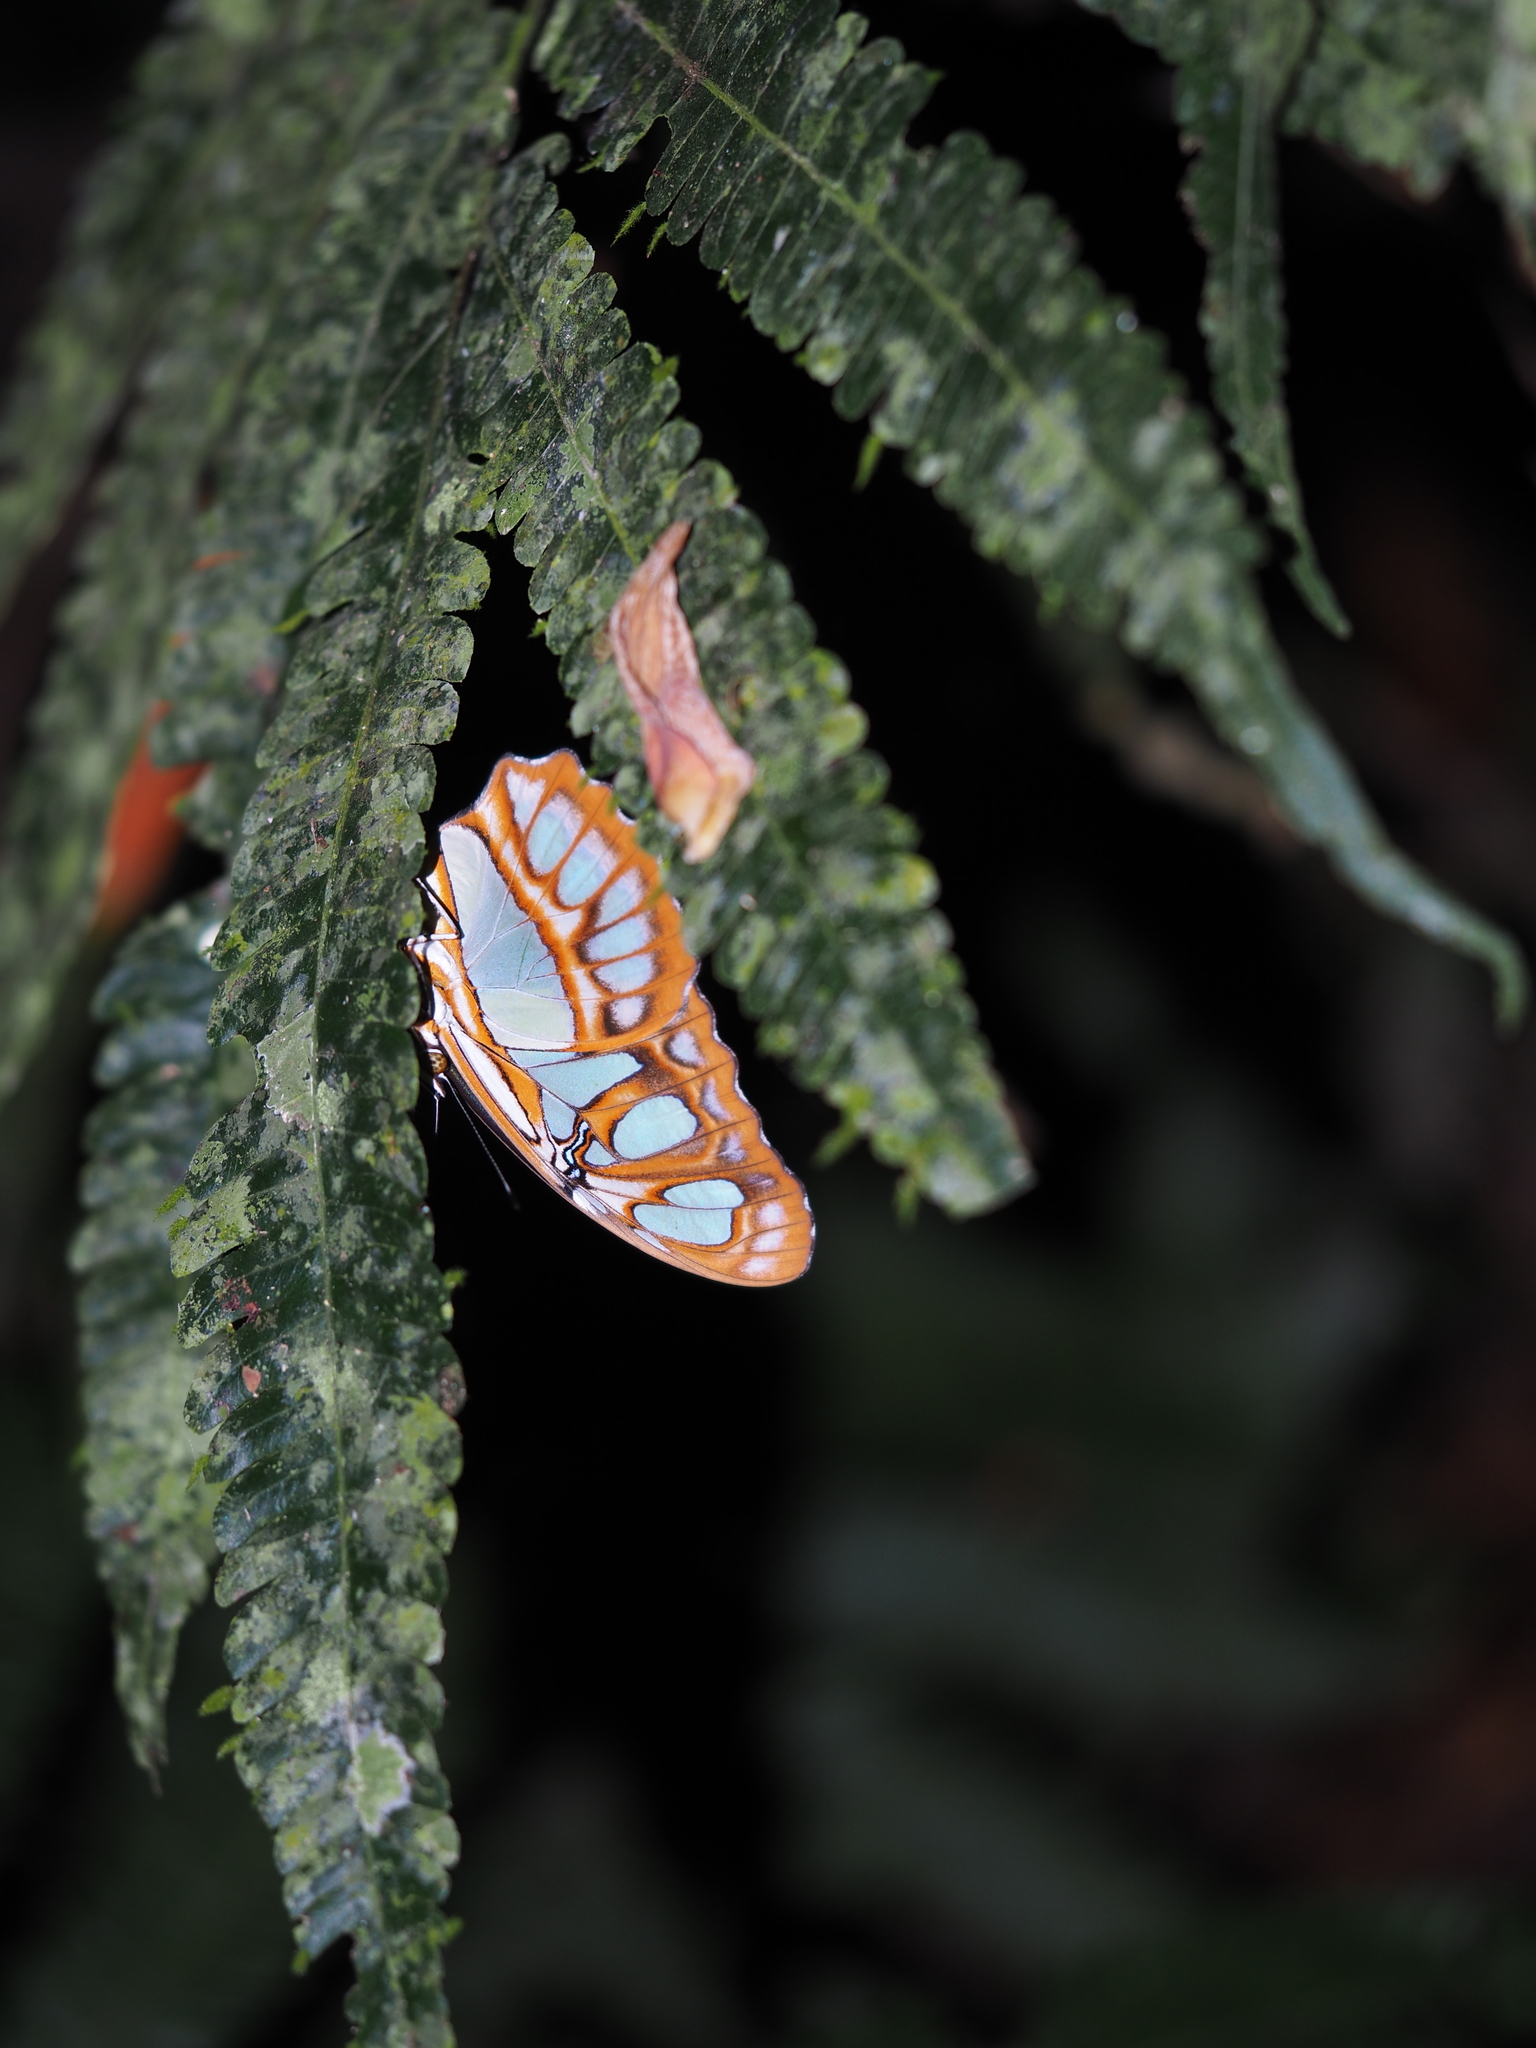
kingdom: Animalia
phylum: Arthropoda
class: Insecta
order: Lepidoptera
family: Nymphalidae
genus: Siproeta
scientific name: Siproeta stelenes
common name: Malachite
